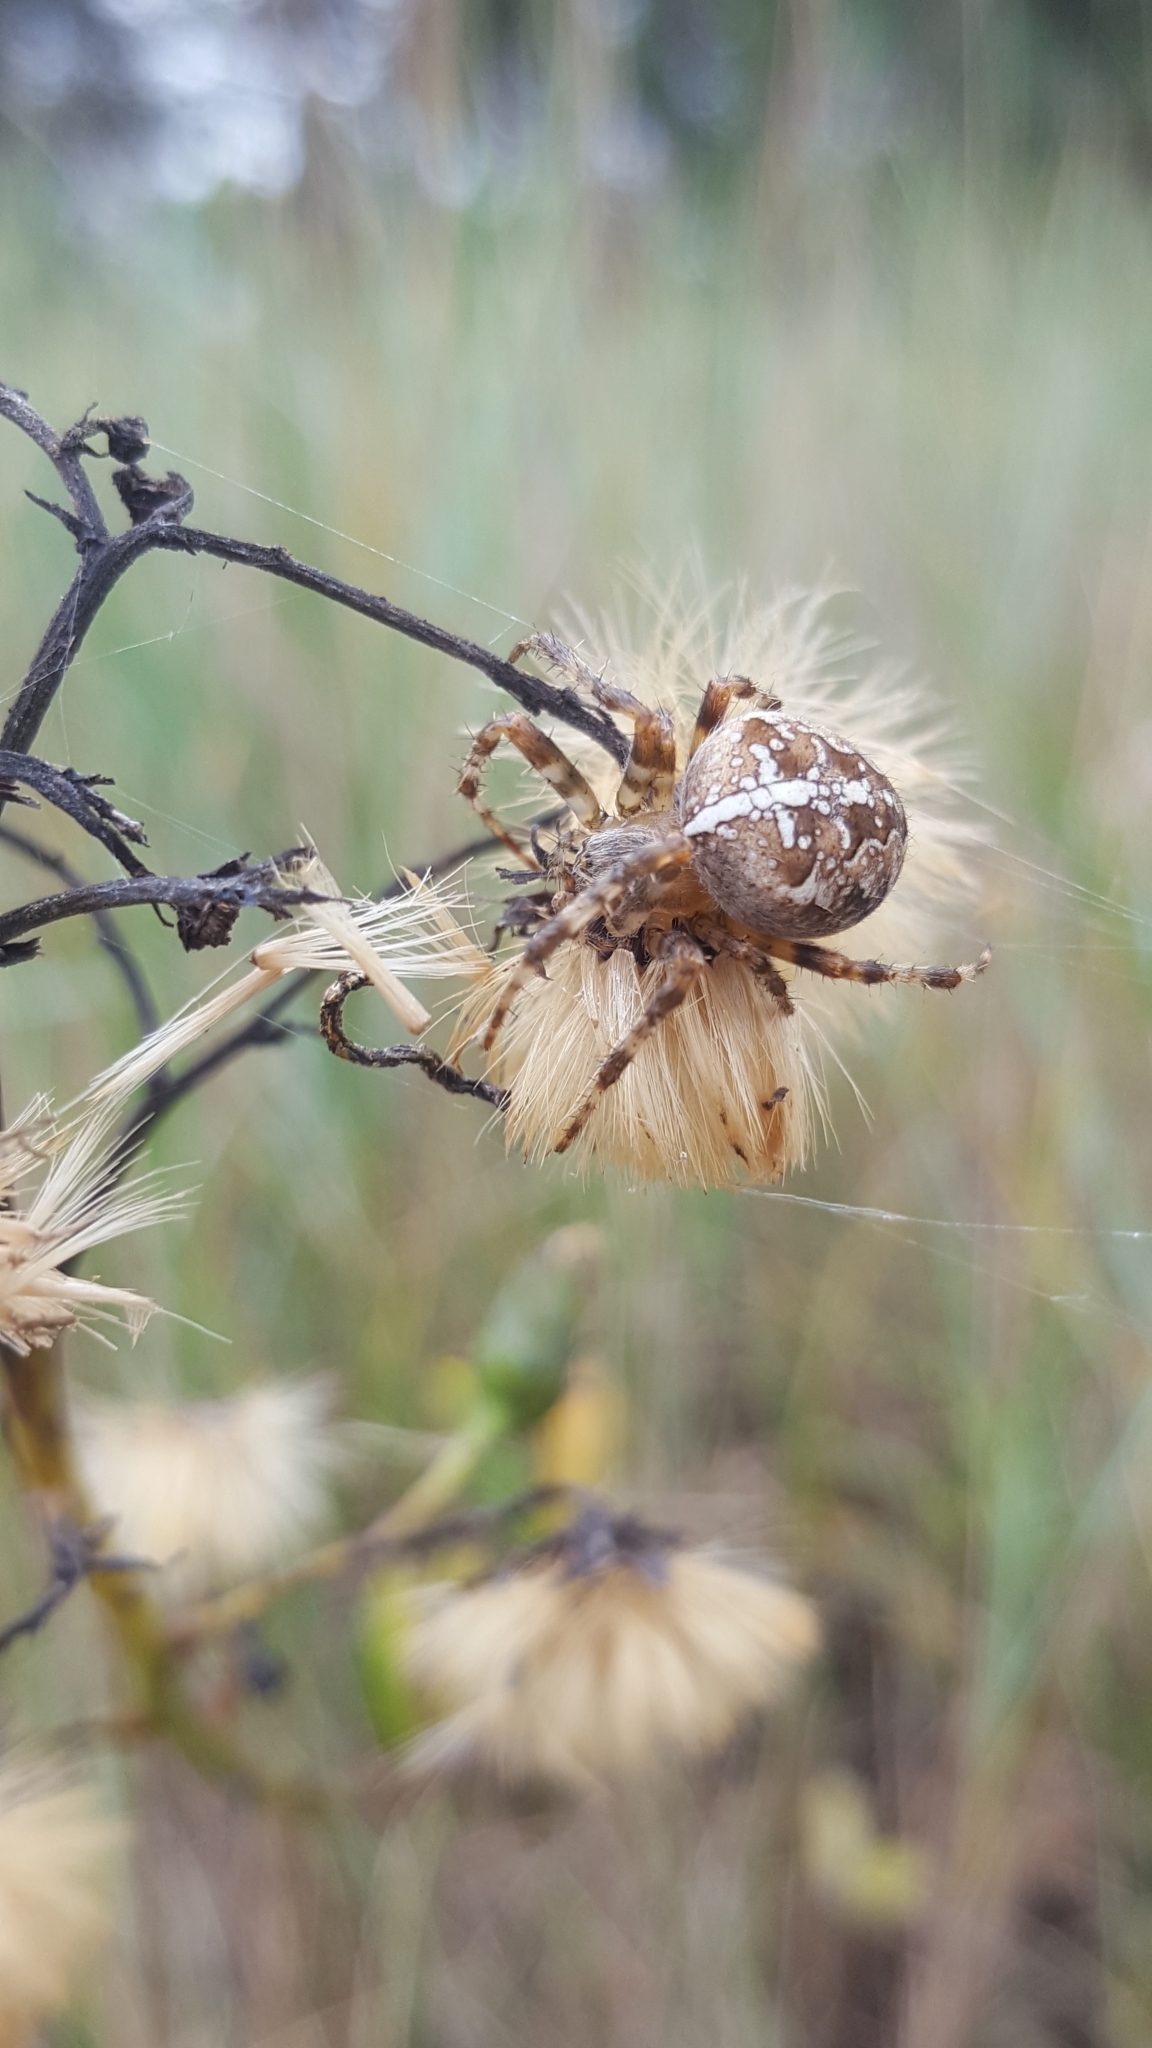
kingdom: Animalia
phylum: Arthropoda
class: Arachnida
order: Araneae
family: Araneidae
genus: Araneus
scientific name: Araneus diadematus
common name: Cross orbweaver
